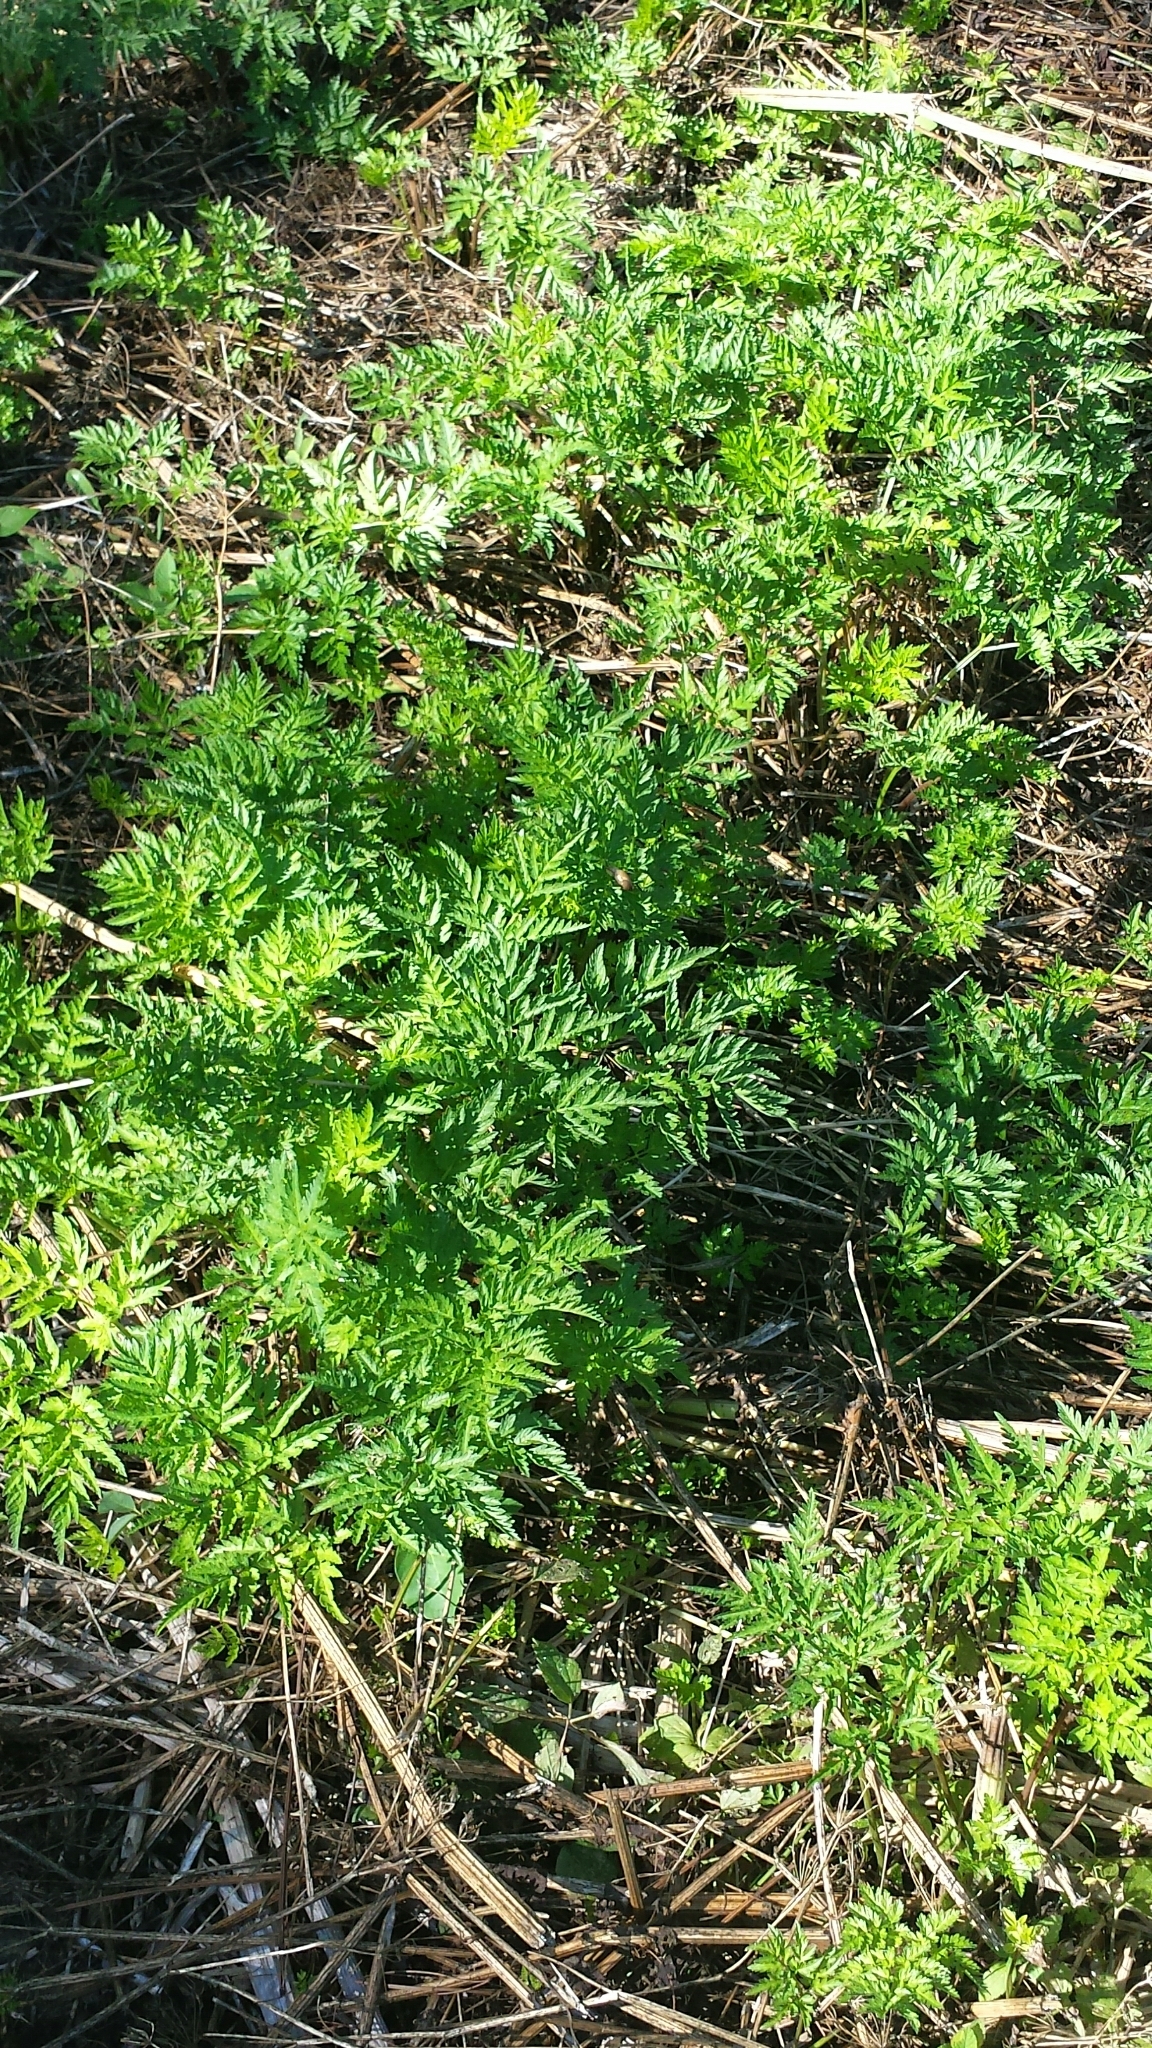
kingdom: Plantae
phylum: Tracheophyta
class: Magnoliopsida
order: Apiales
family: Apiaceae
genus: Anthriscus
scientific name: Anthriscus sylvestris
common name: Cow parsley
